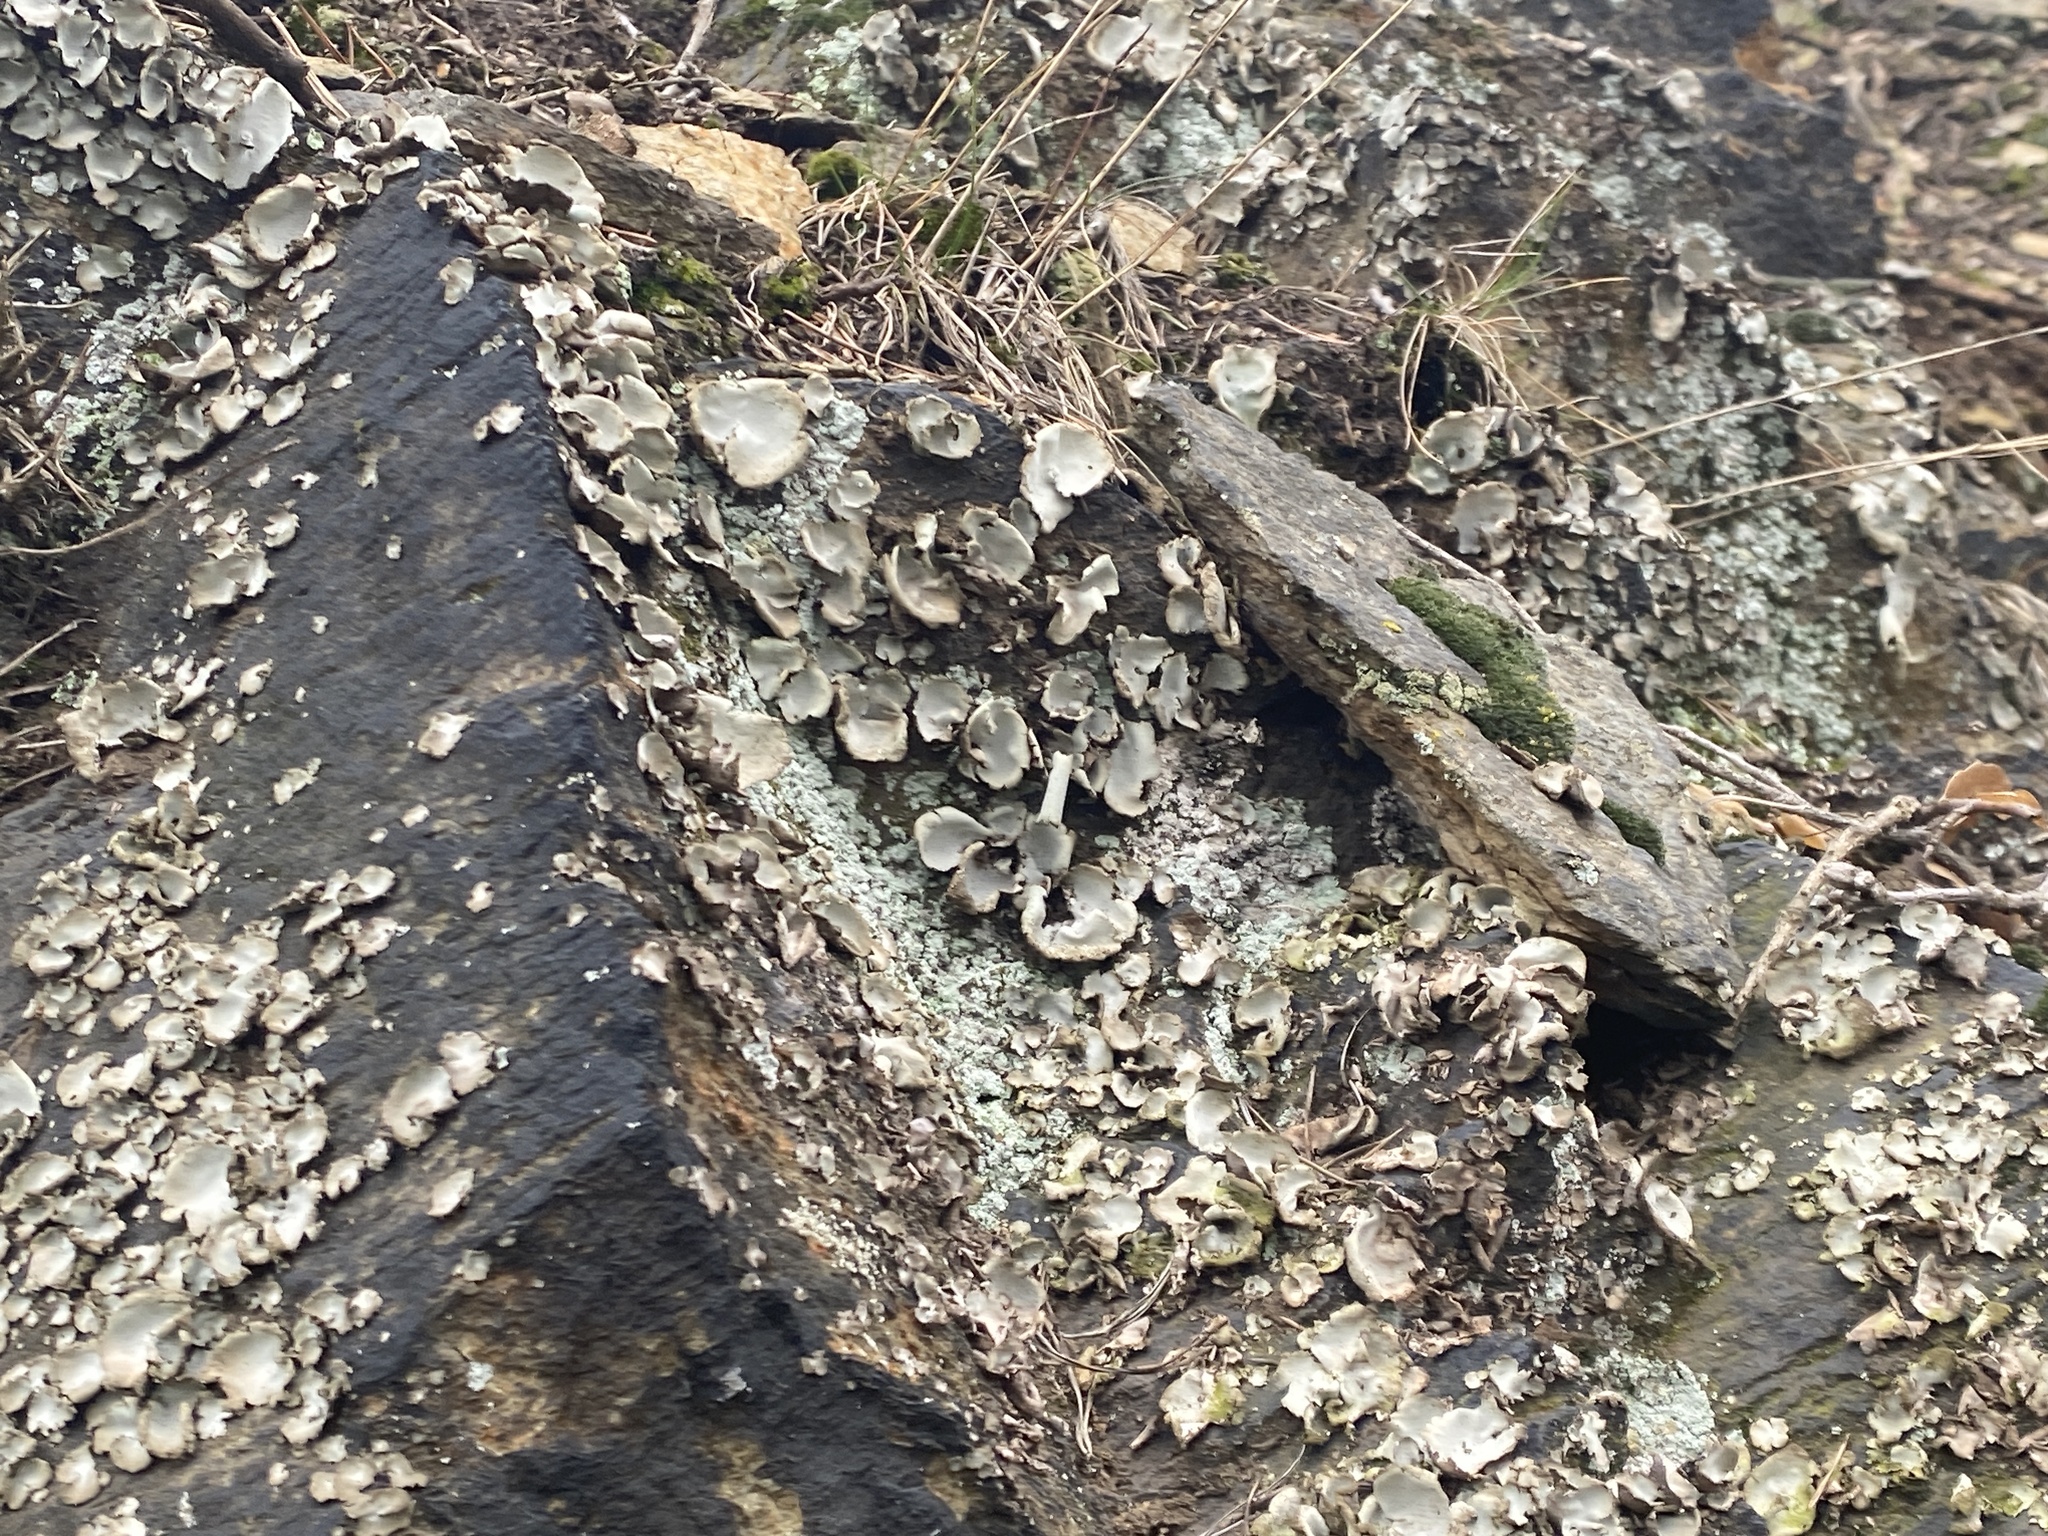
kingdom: Fungi
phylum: Ascomycota
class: Lecanoromycetes
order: Umbilicariales
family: Umbilicariaceae
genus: Umbilicaria
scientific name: Umbilicaria hirsuta
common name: Granulating rocktripe lichen
